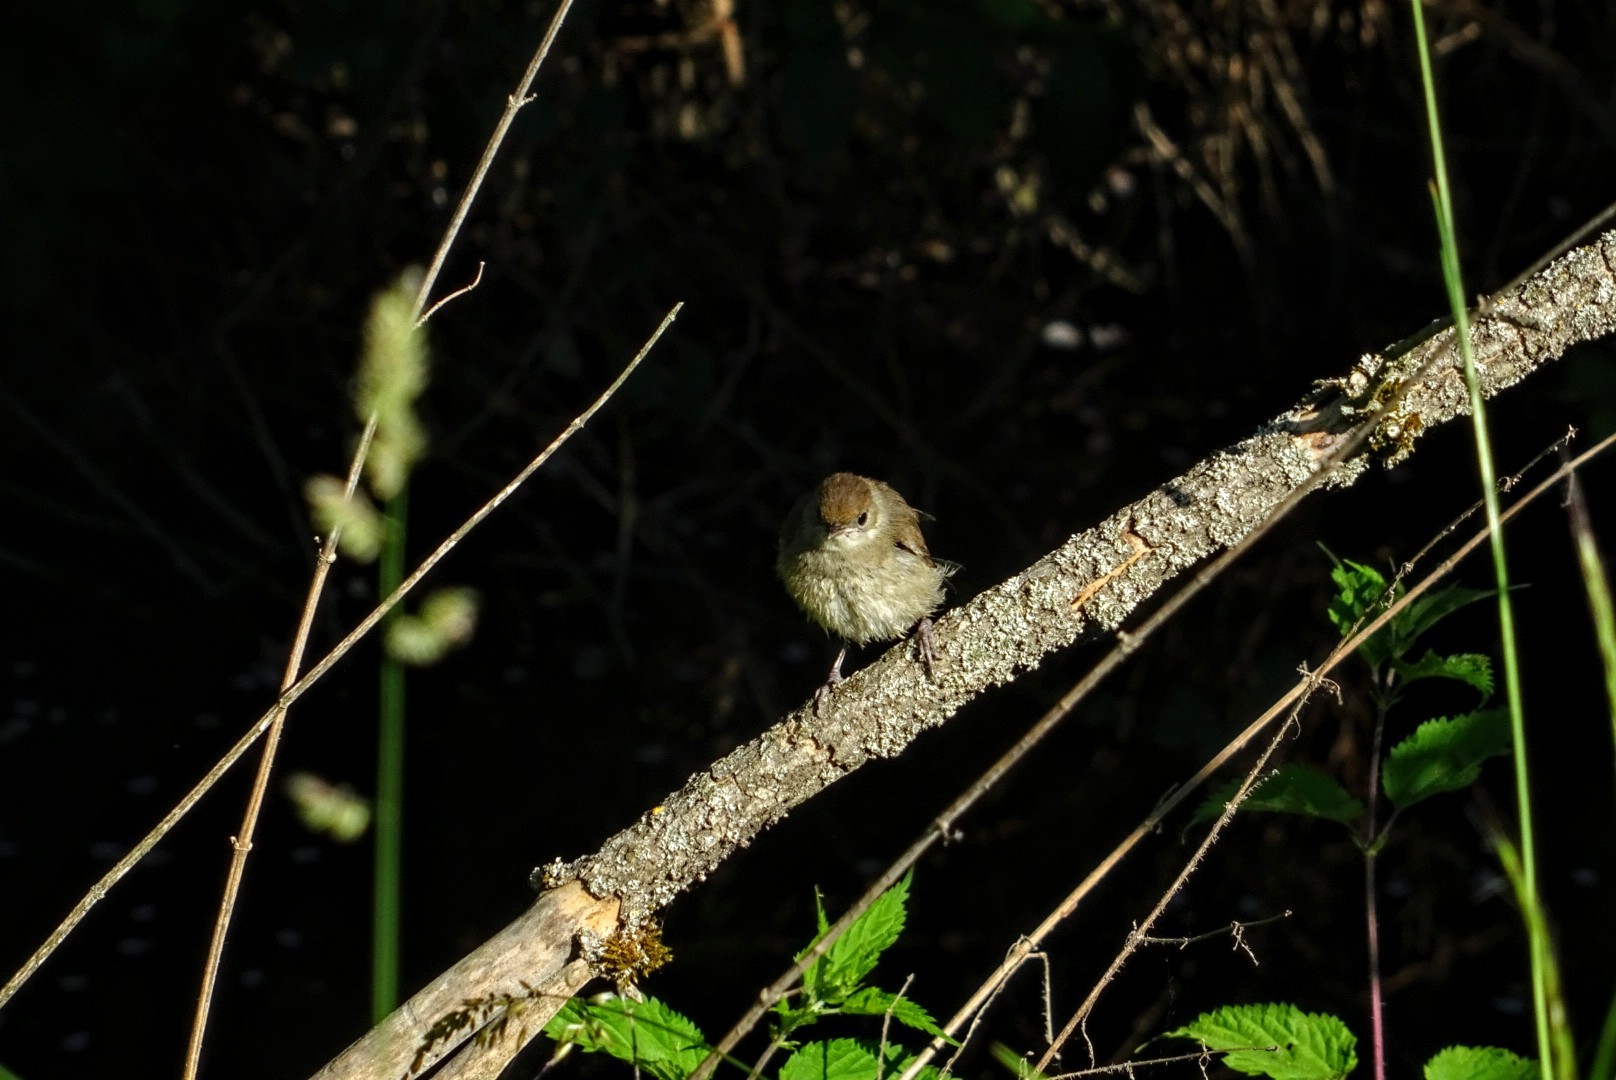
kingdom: Animalia
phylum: Chordata
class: Aves
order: Passeriformes
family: Sylviidae
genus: Sylvia
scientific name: Sylvia atricapilla
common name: Eurasian blackcap
